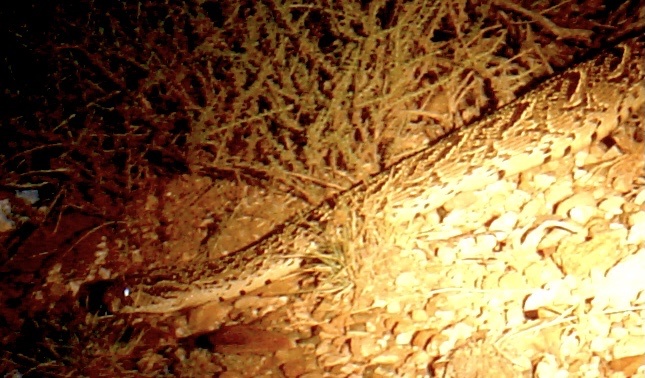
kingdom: Animalia
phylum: Chordata
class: Squamata
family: Viperidae
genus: Bitis
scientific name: Bitis arietans
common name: Puff adder
